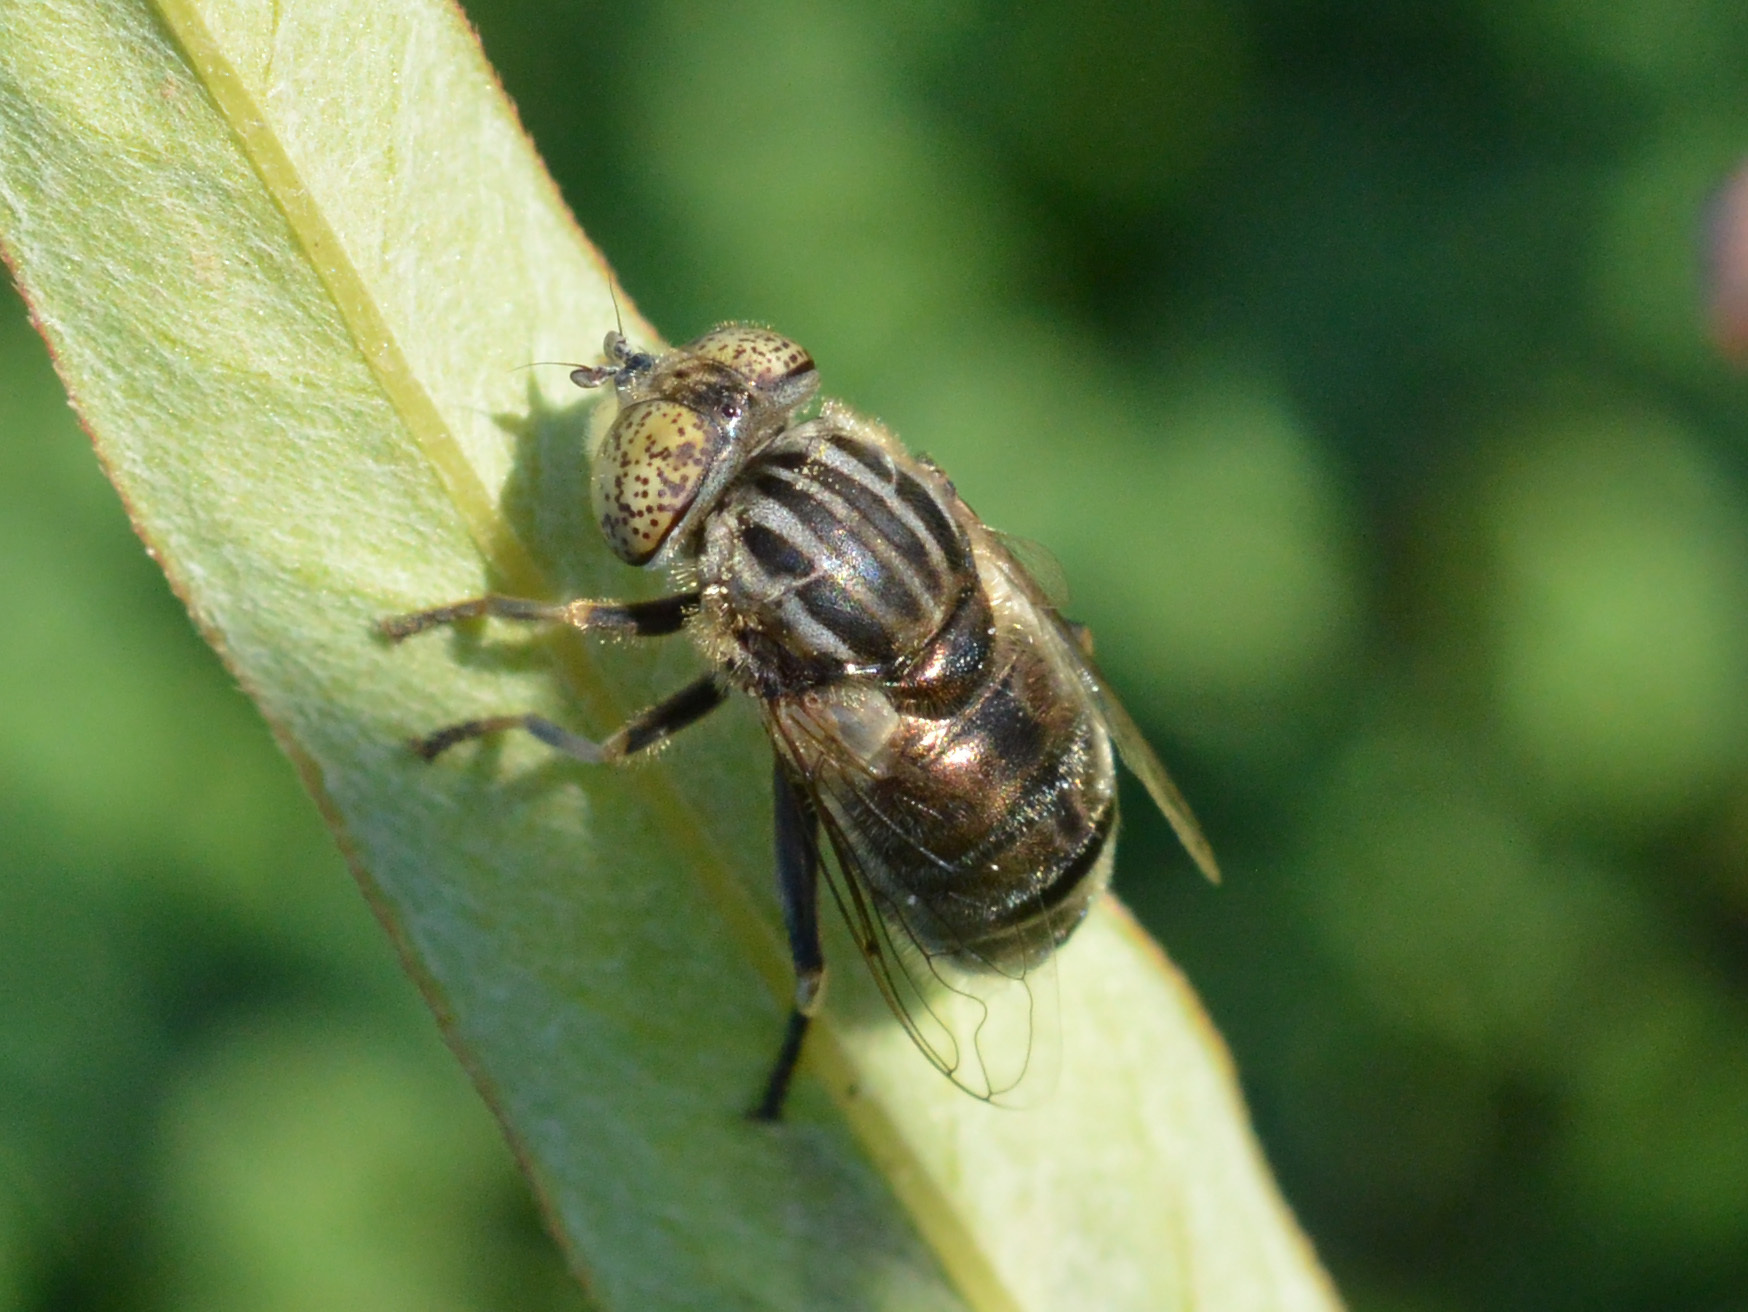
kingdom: Animalia
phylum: Arthropoda
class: Insecta
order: Diptera
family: Syrphidae
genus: Eristalinus
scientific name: Eristalinus sepulchralis
